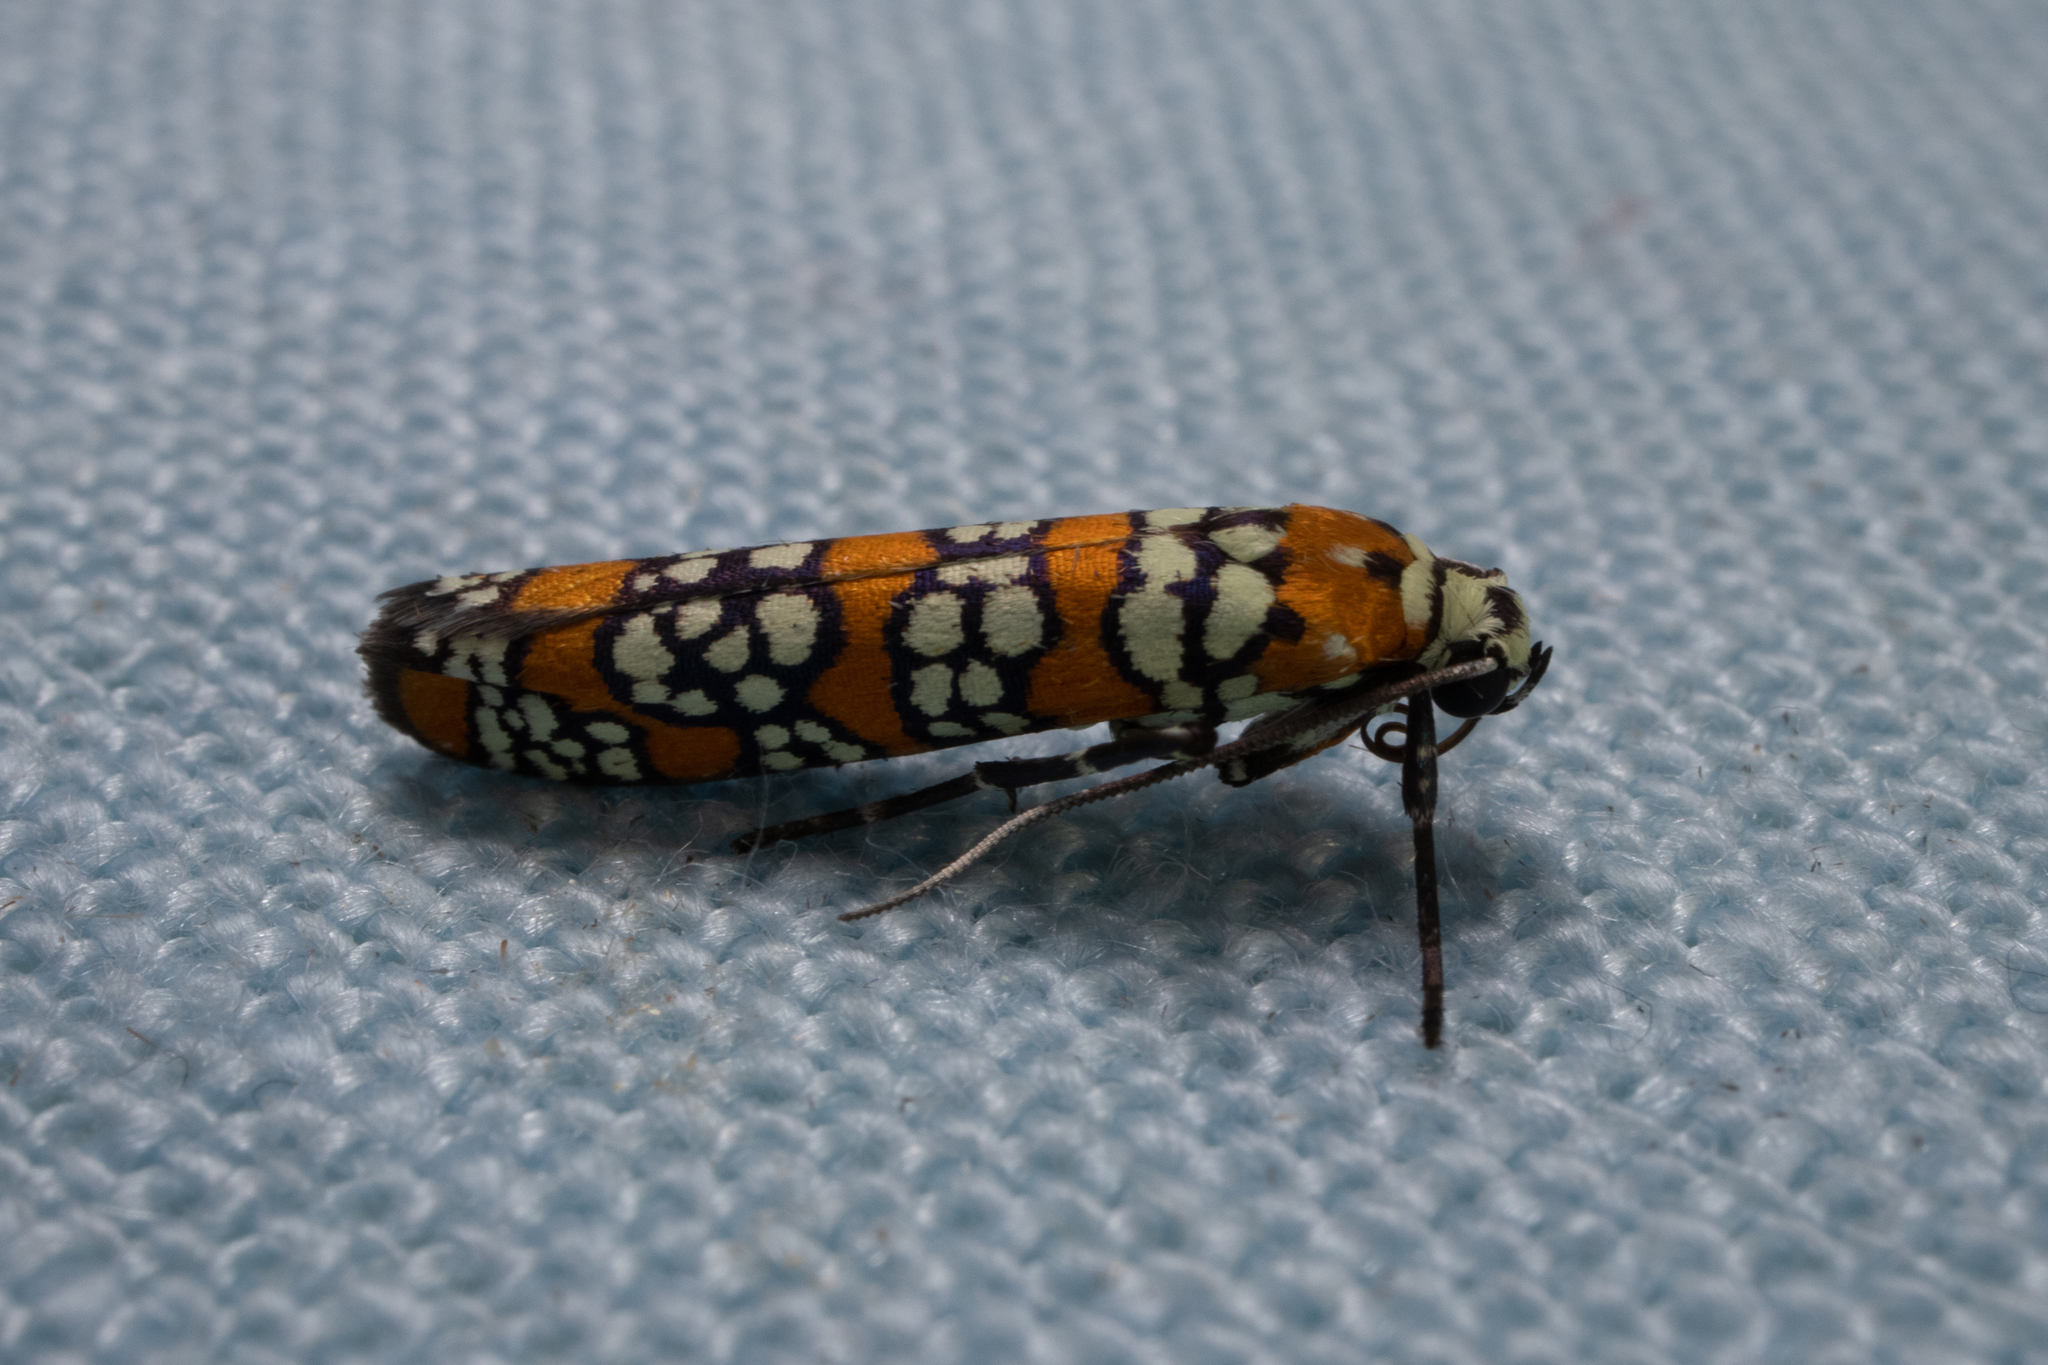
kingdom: Animalia
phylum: Arthropoda
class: Insecta
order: Lepidoptera
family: Attevidae
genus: Atteva
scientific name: Atteva punctella
